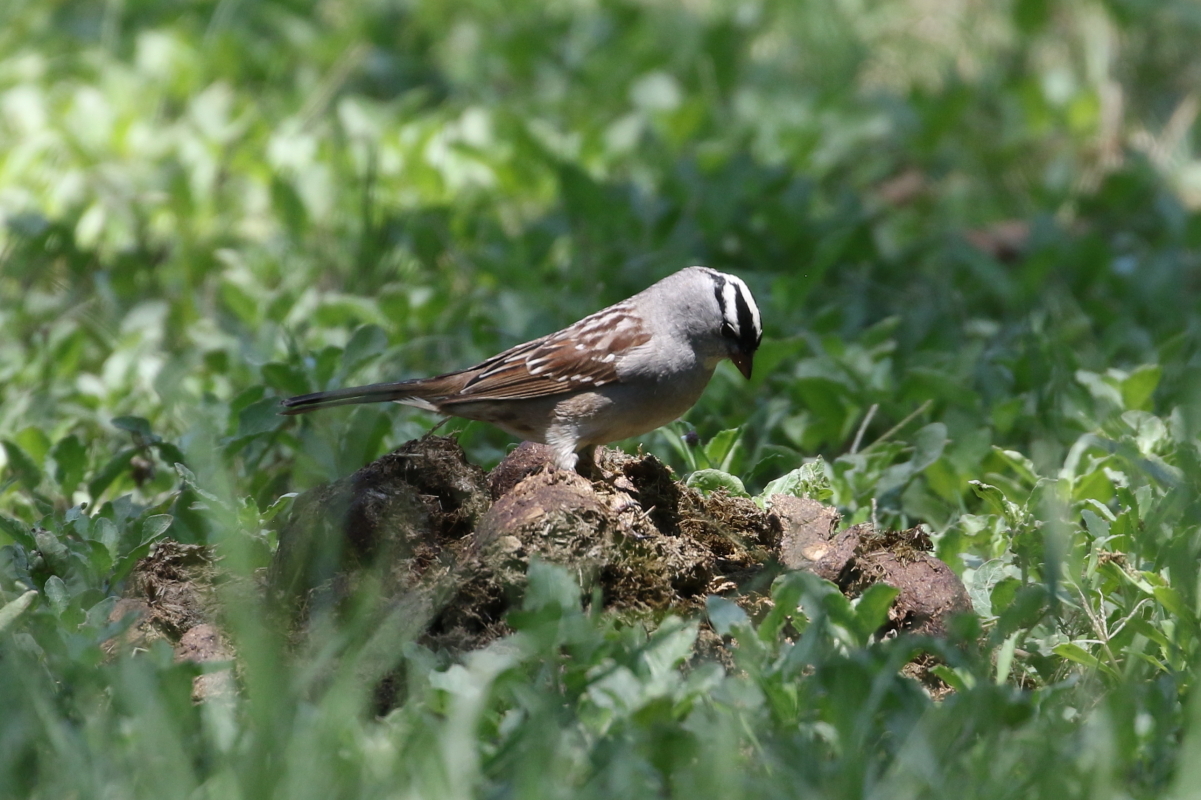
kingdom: Animalia
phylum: Chordata
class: Aves
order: Passeriformes
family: Passerellidae
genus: Zonotrichia
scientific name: Zonotrichia leucophrys
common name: White-crowned sparrow
